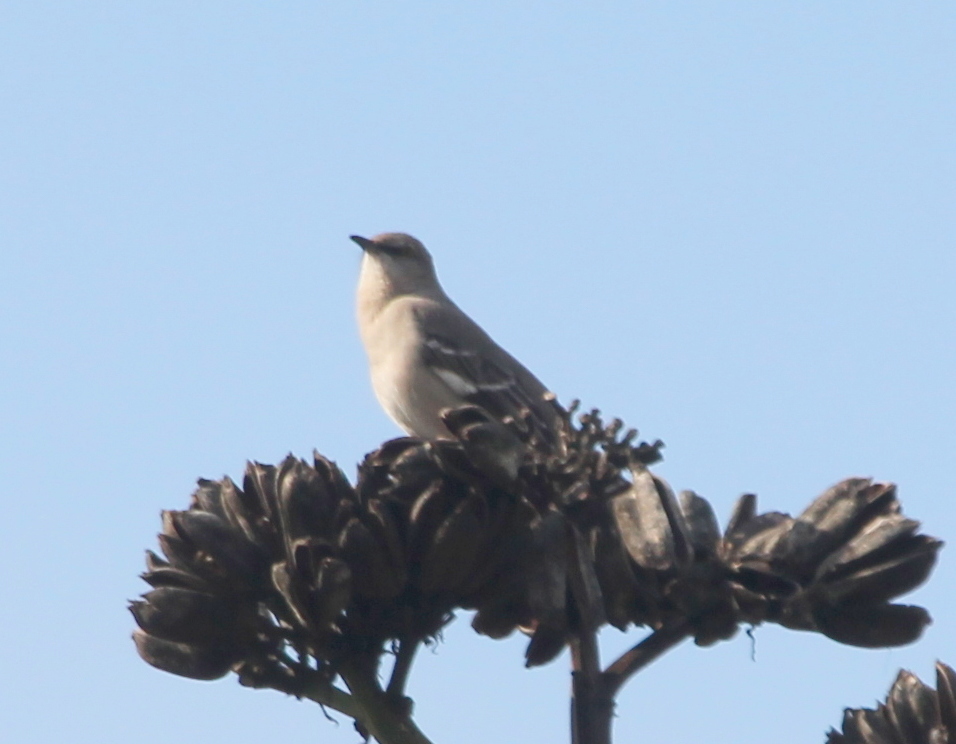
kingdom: Animalia
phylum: Chordata
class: Aves
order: Passeriformes
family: Mimidae
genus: Mimus
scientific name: Mimus polyglottos
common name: Northern mockingbird
